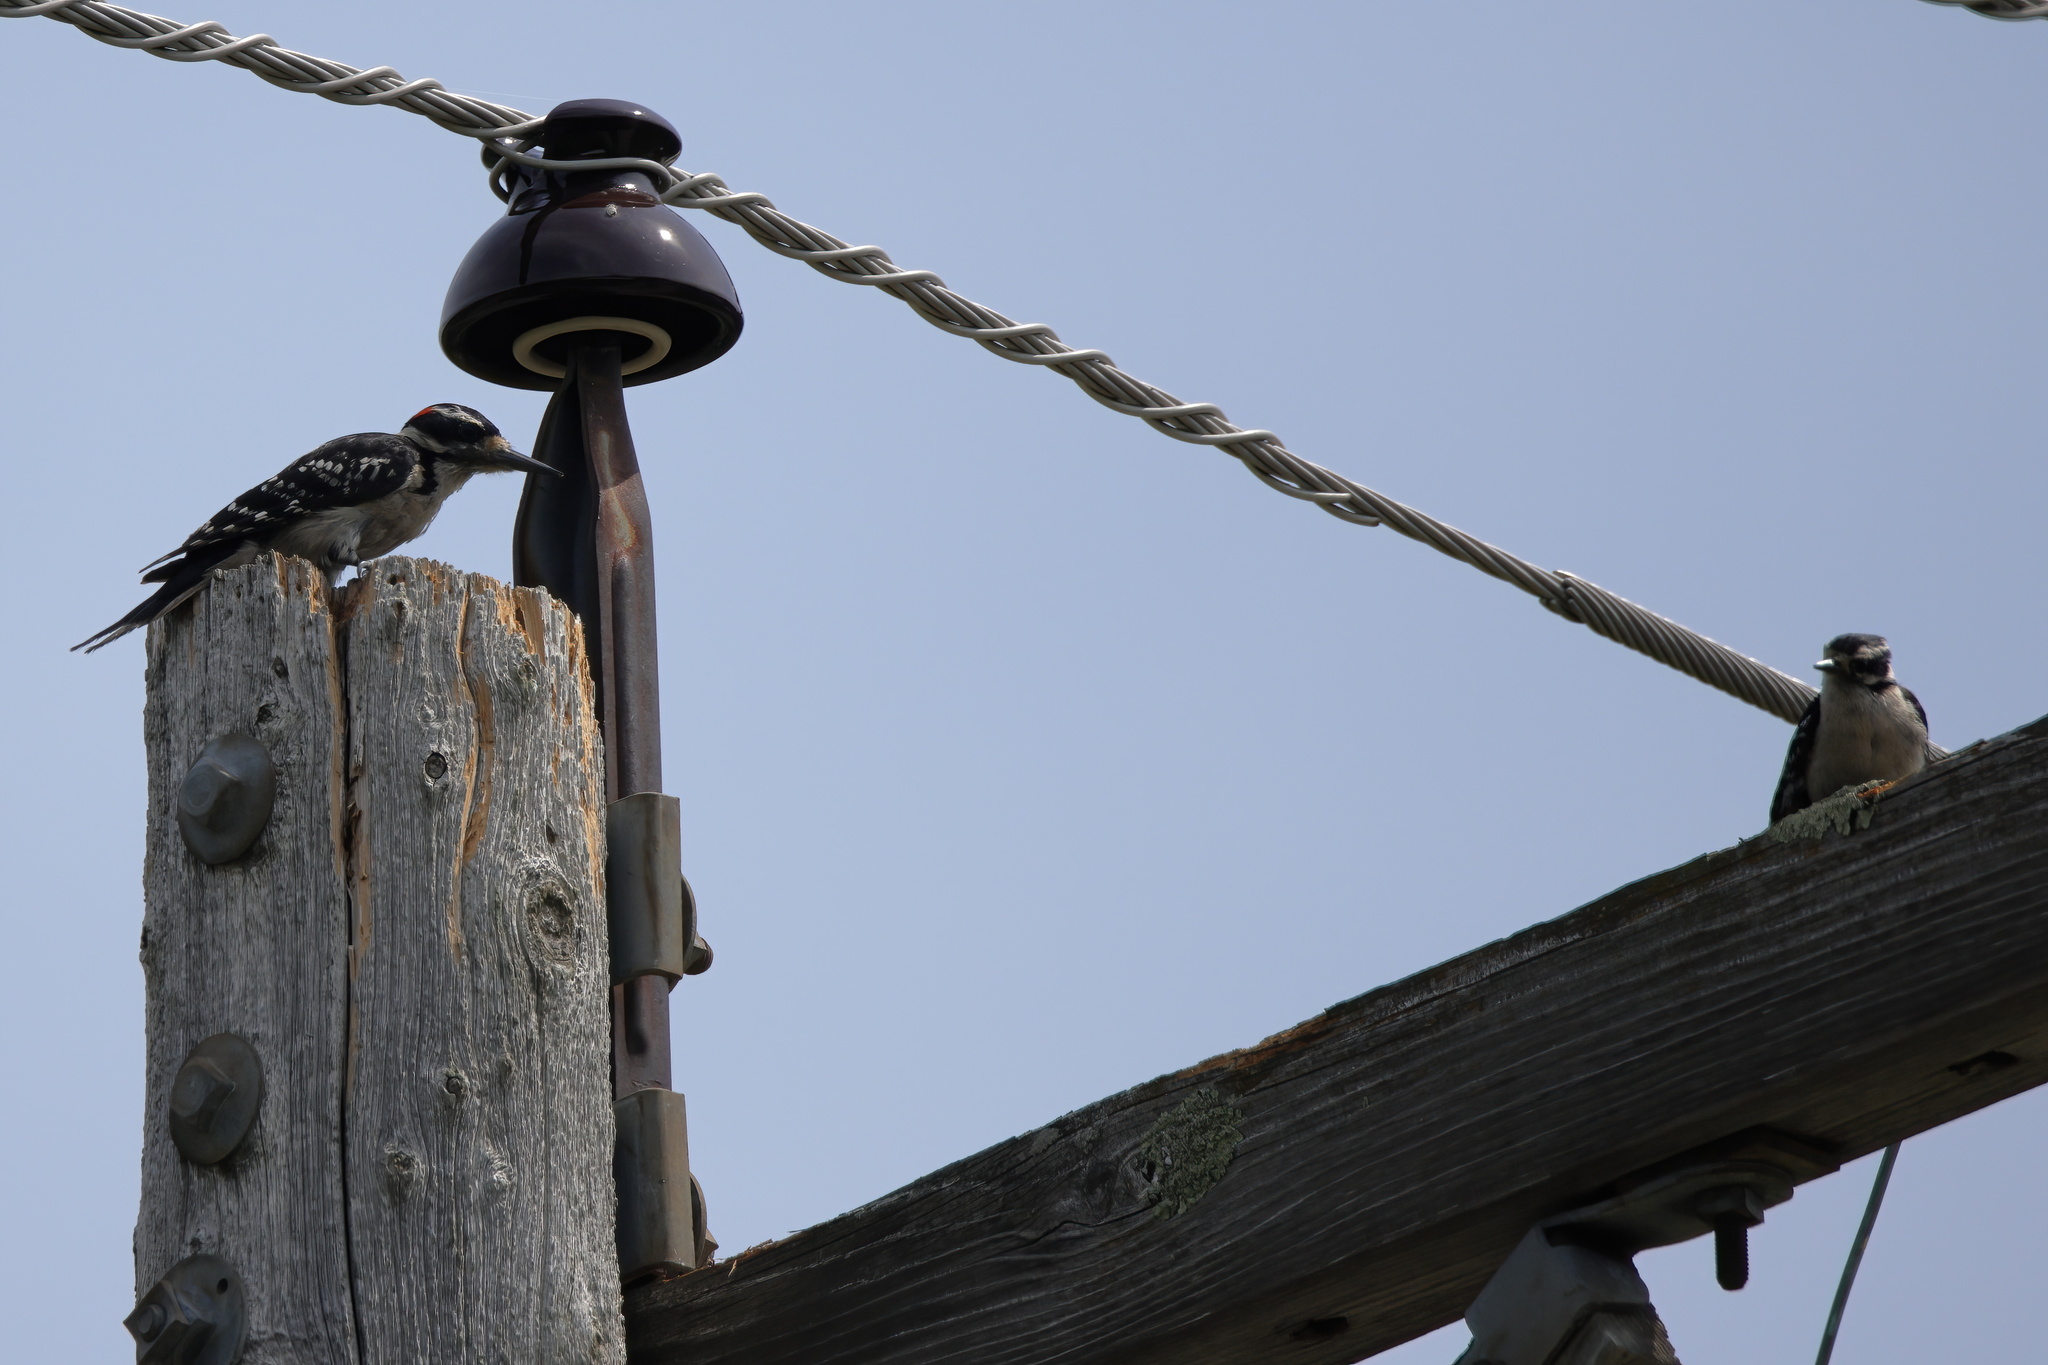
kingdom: Animalia
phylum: Chordata
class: Aves
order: Piciformes
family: Picidae
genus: Dryobates
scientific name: Dryobates pubescens
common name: Downy woodpecker
